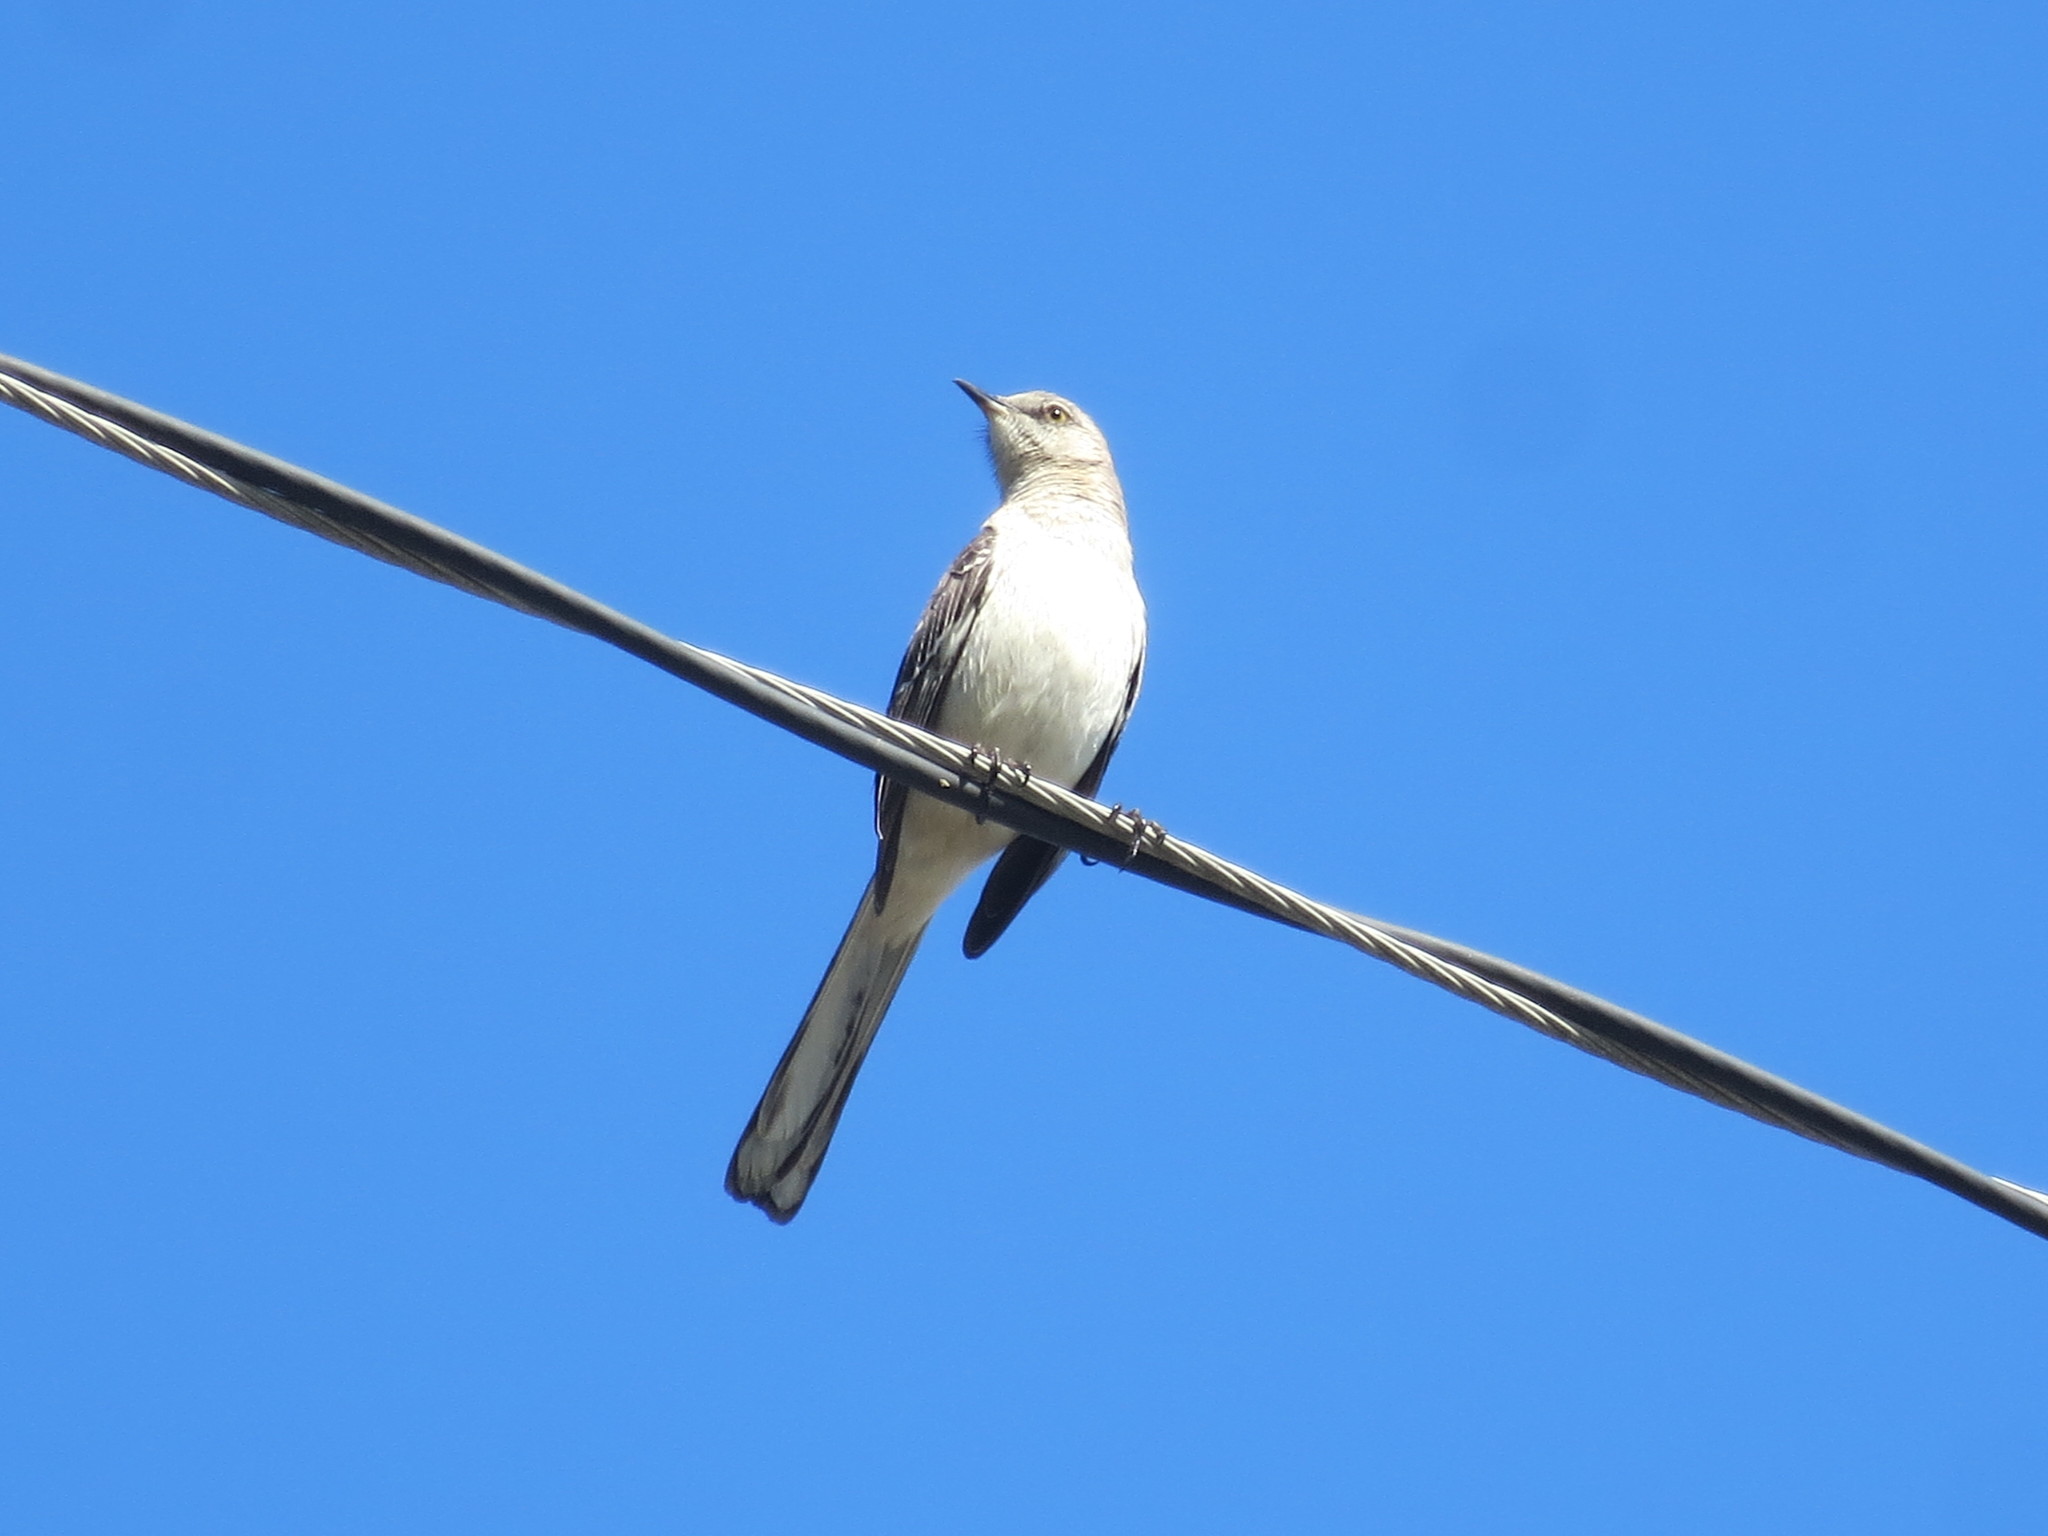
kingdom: Animalia
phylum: Chordata
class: Aves
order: Passeriformes
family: Mimidae
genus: Mimus
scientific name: Mimus polyglottos
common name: Northern mockingbird
